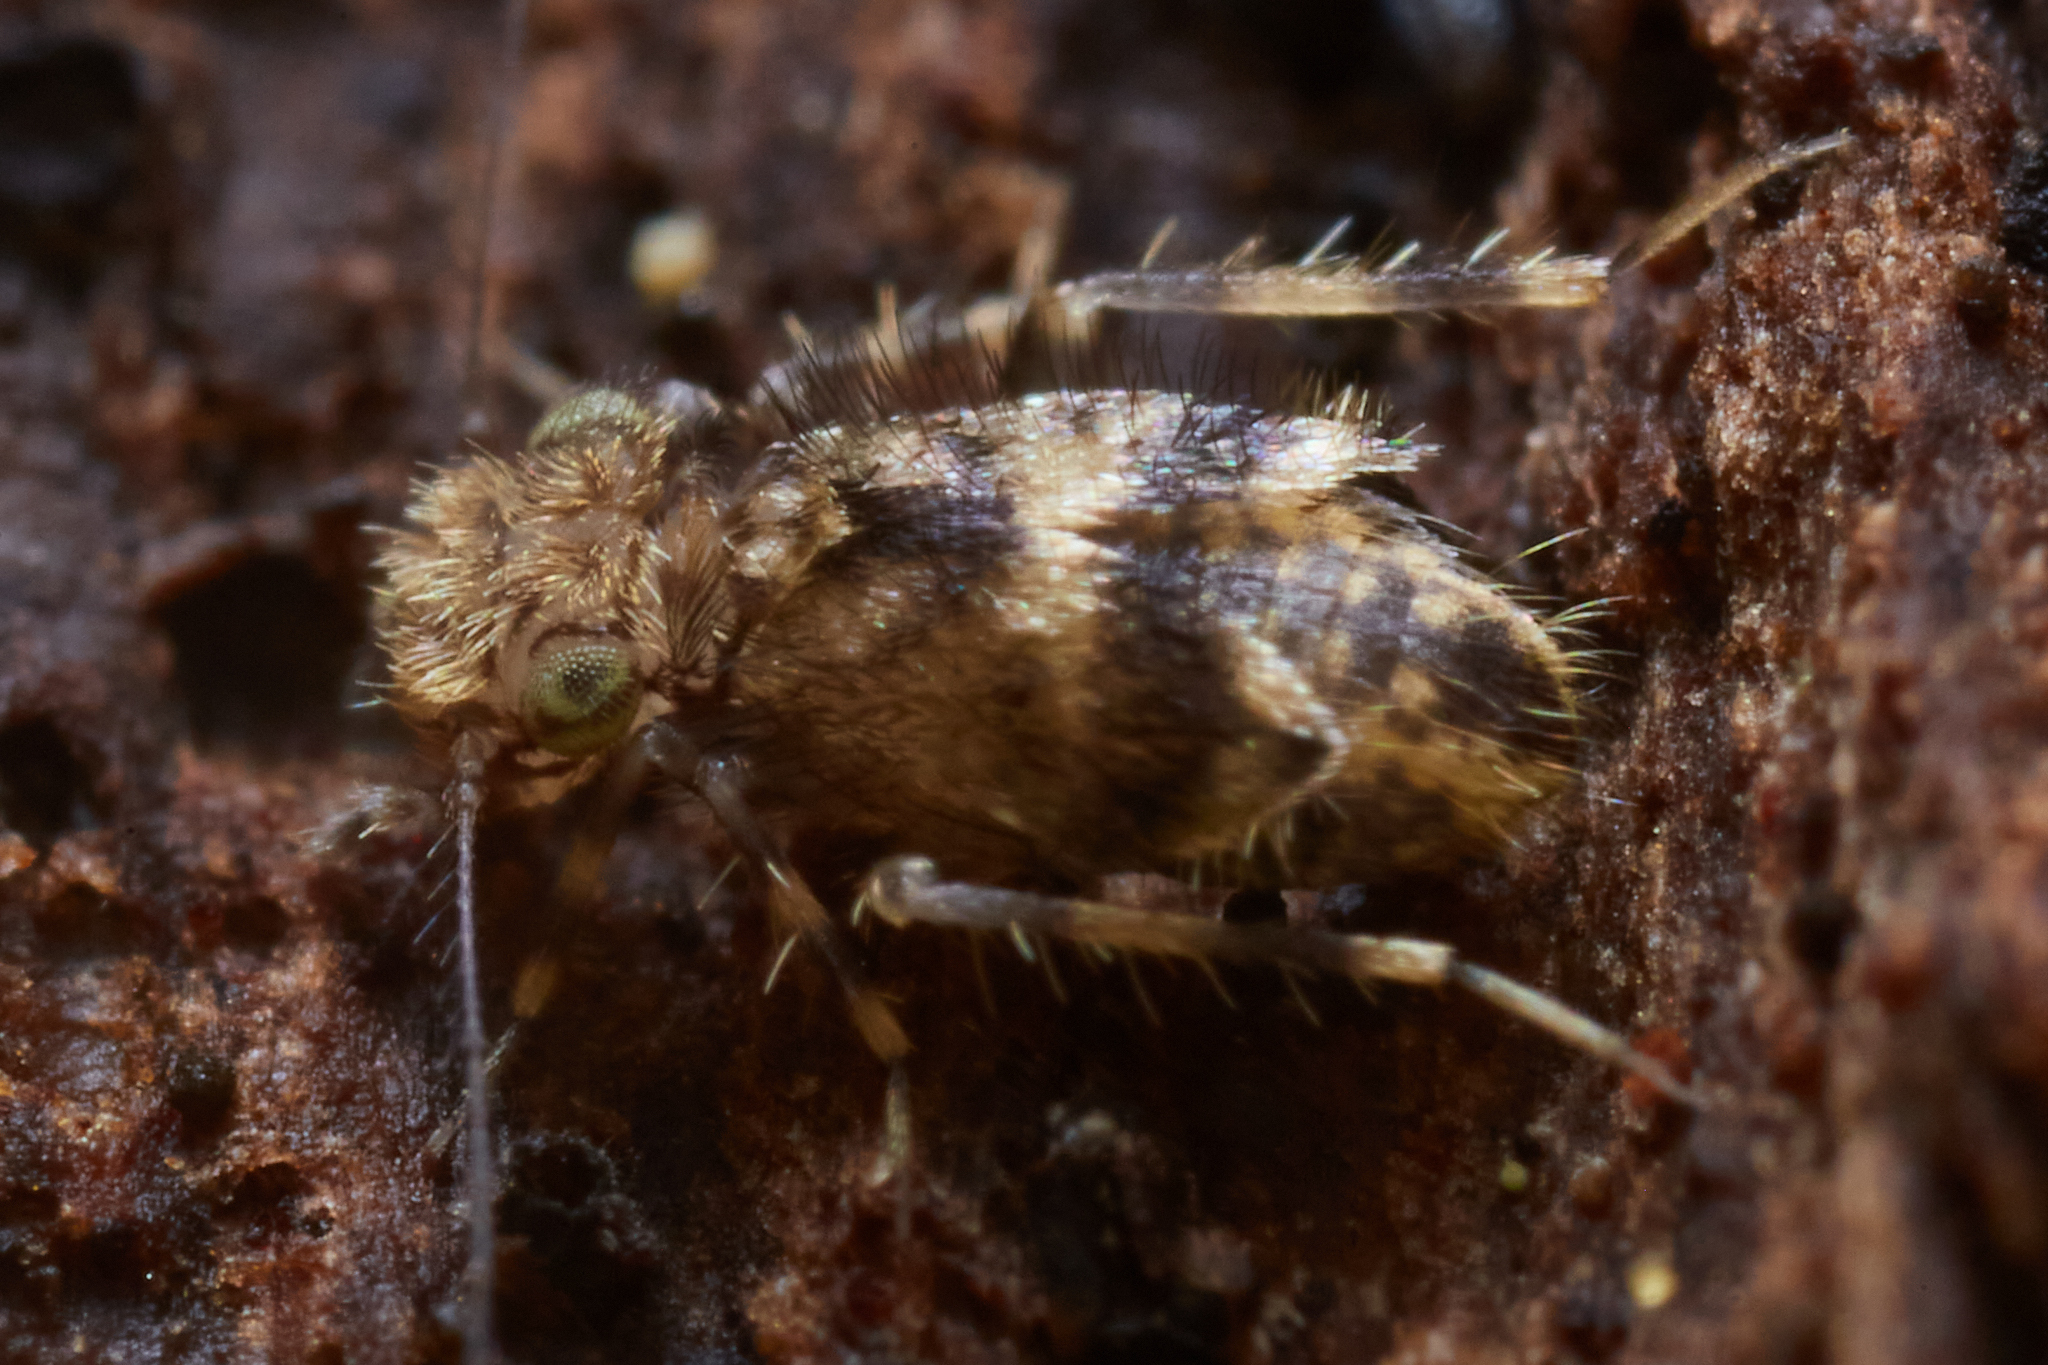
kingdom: Animalia
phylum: Arthropoda
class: Insecta
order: Psocodea
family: Lepidopsocidae
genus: Pteroxanium
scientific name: Pteroxanium kelloggi
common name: Bark lice
